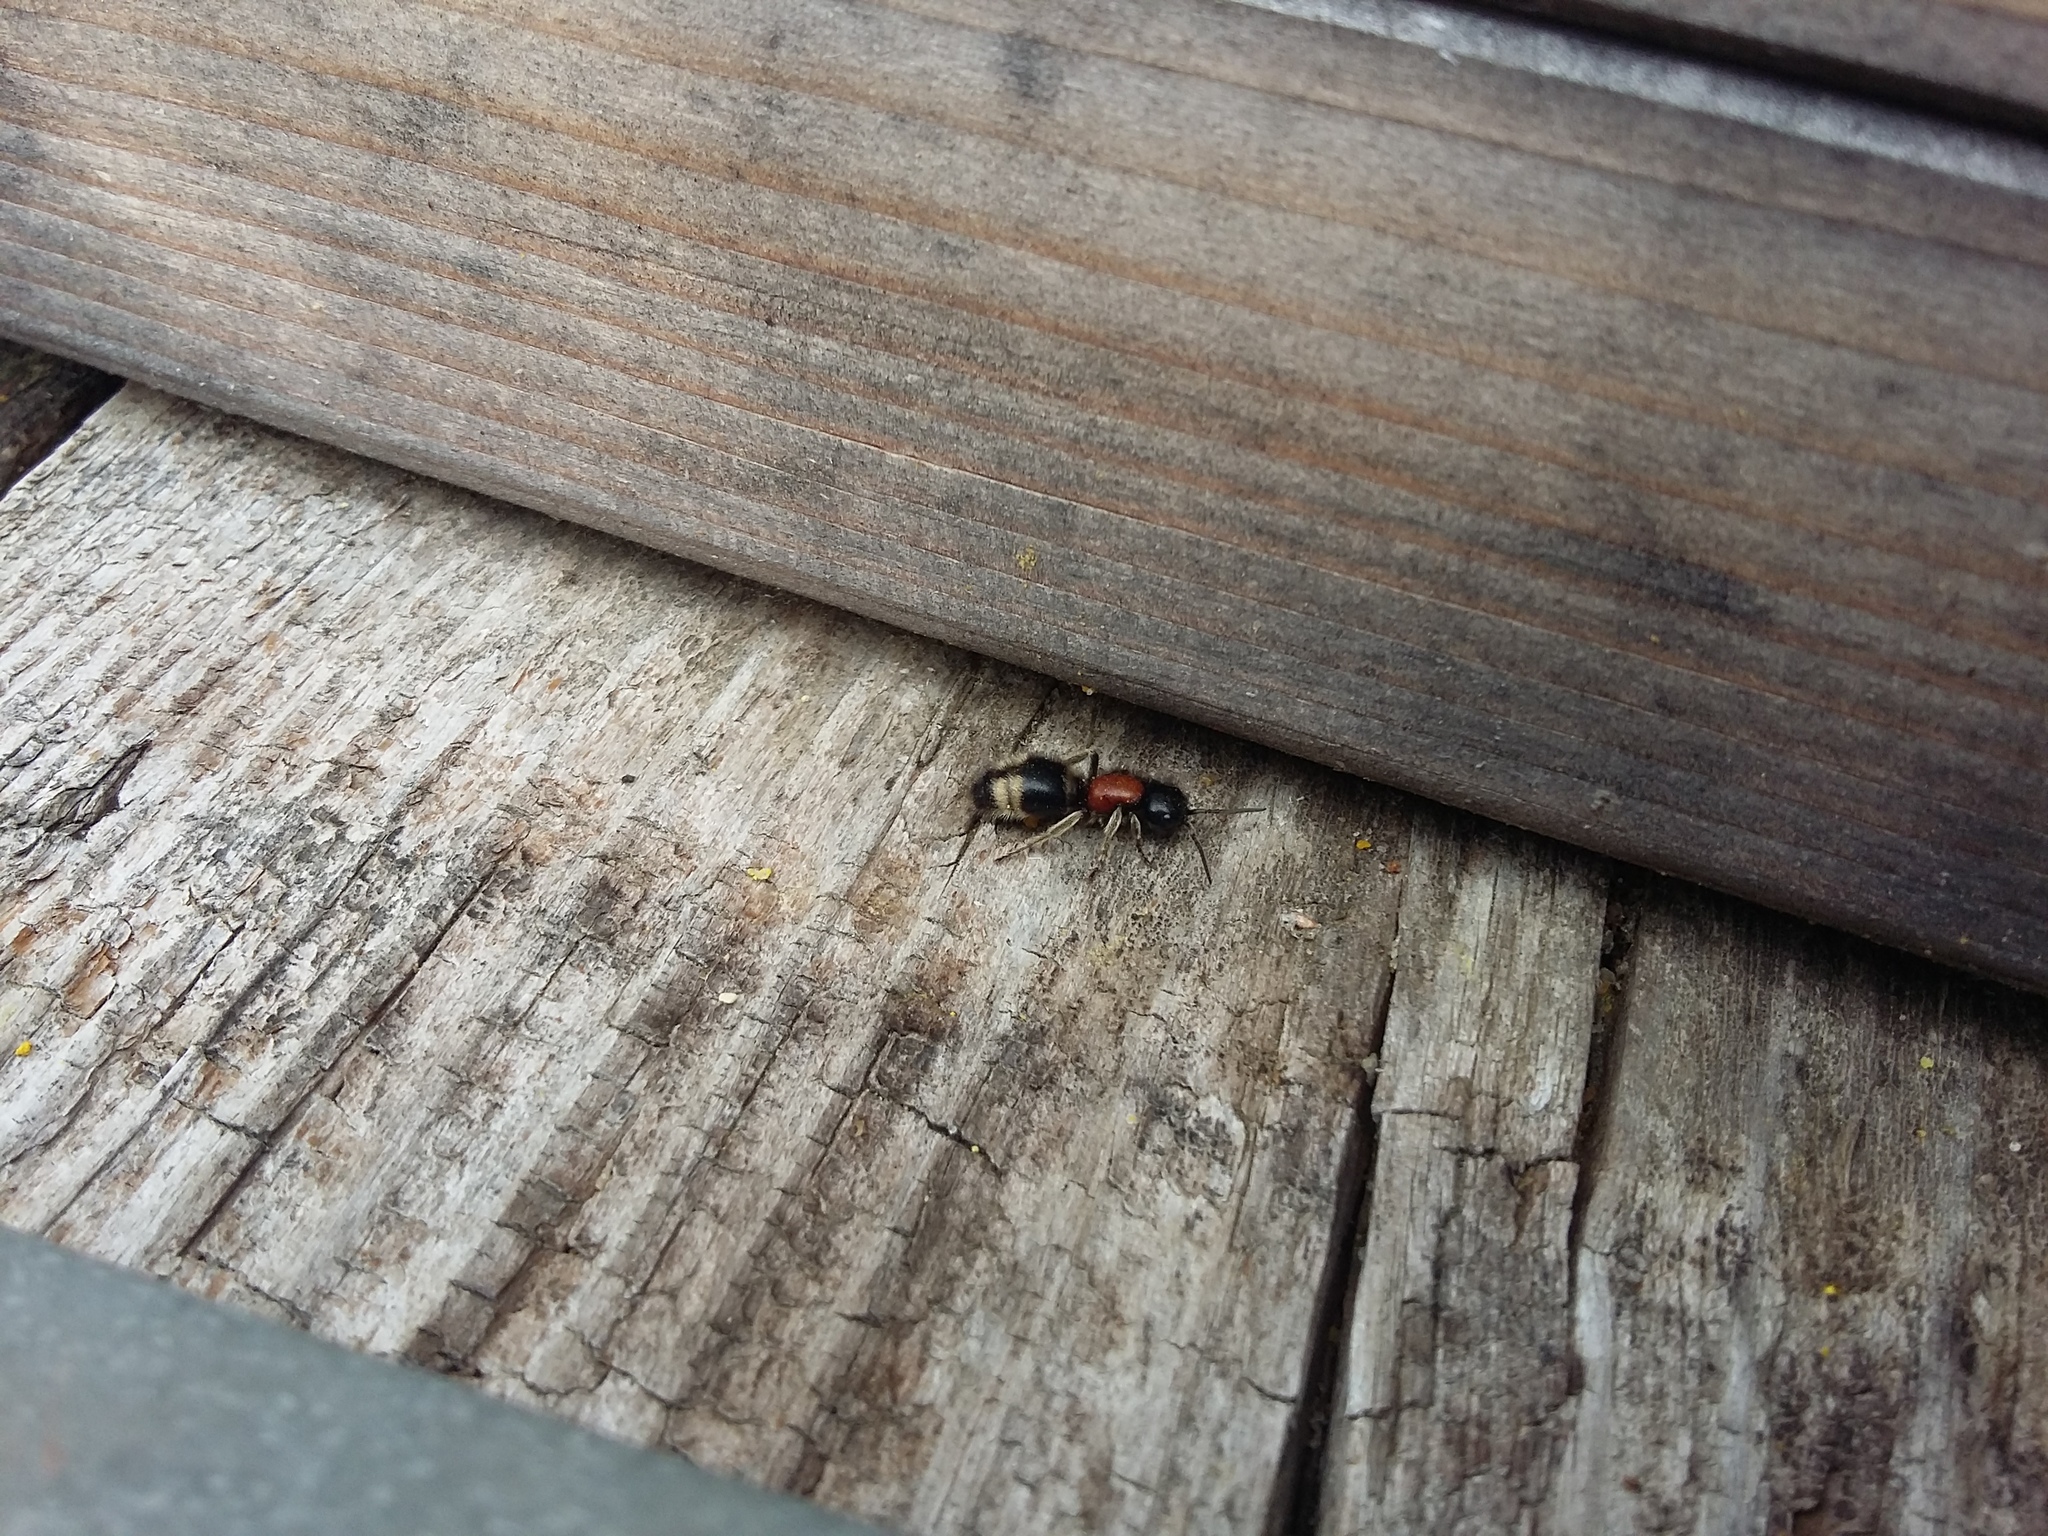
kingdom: Animalia
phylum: Arthropoda
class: Insecta
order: Hymenoptera
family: Mutillidae
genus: Mutilla
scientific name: Mutilla marginata
